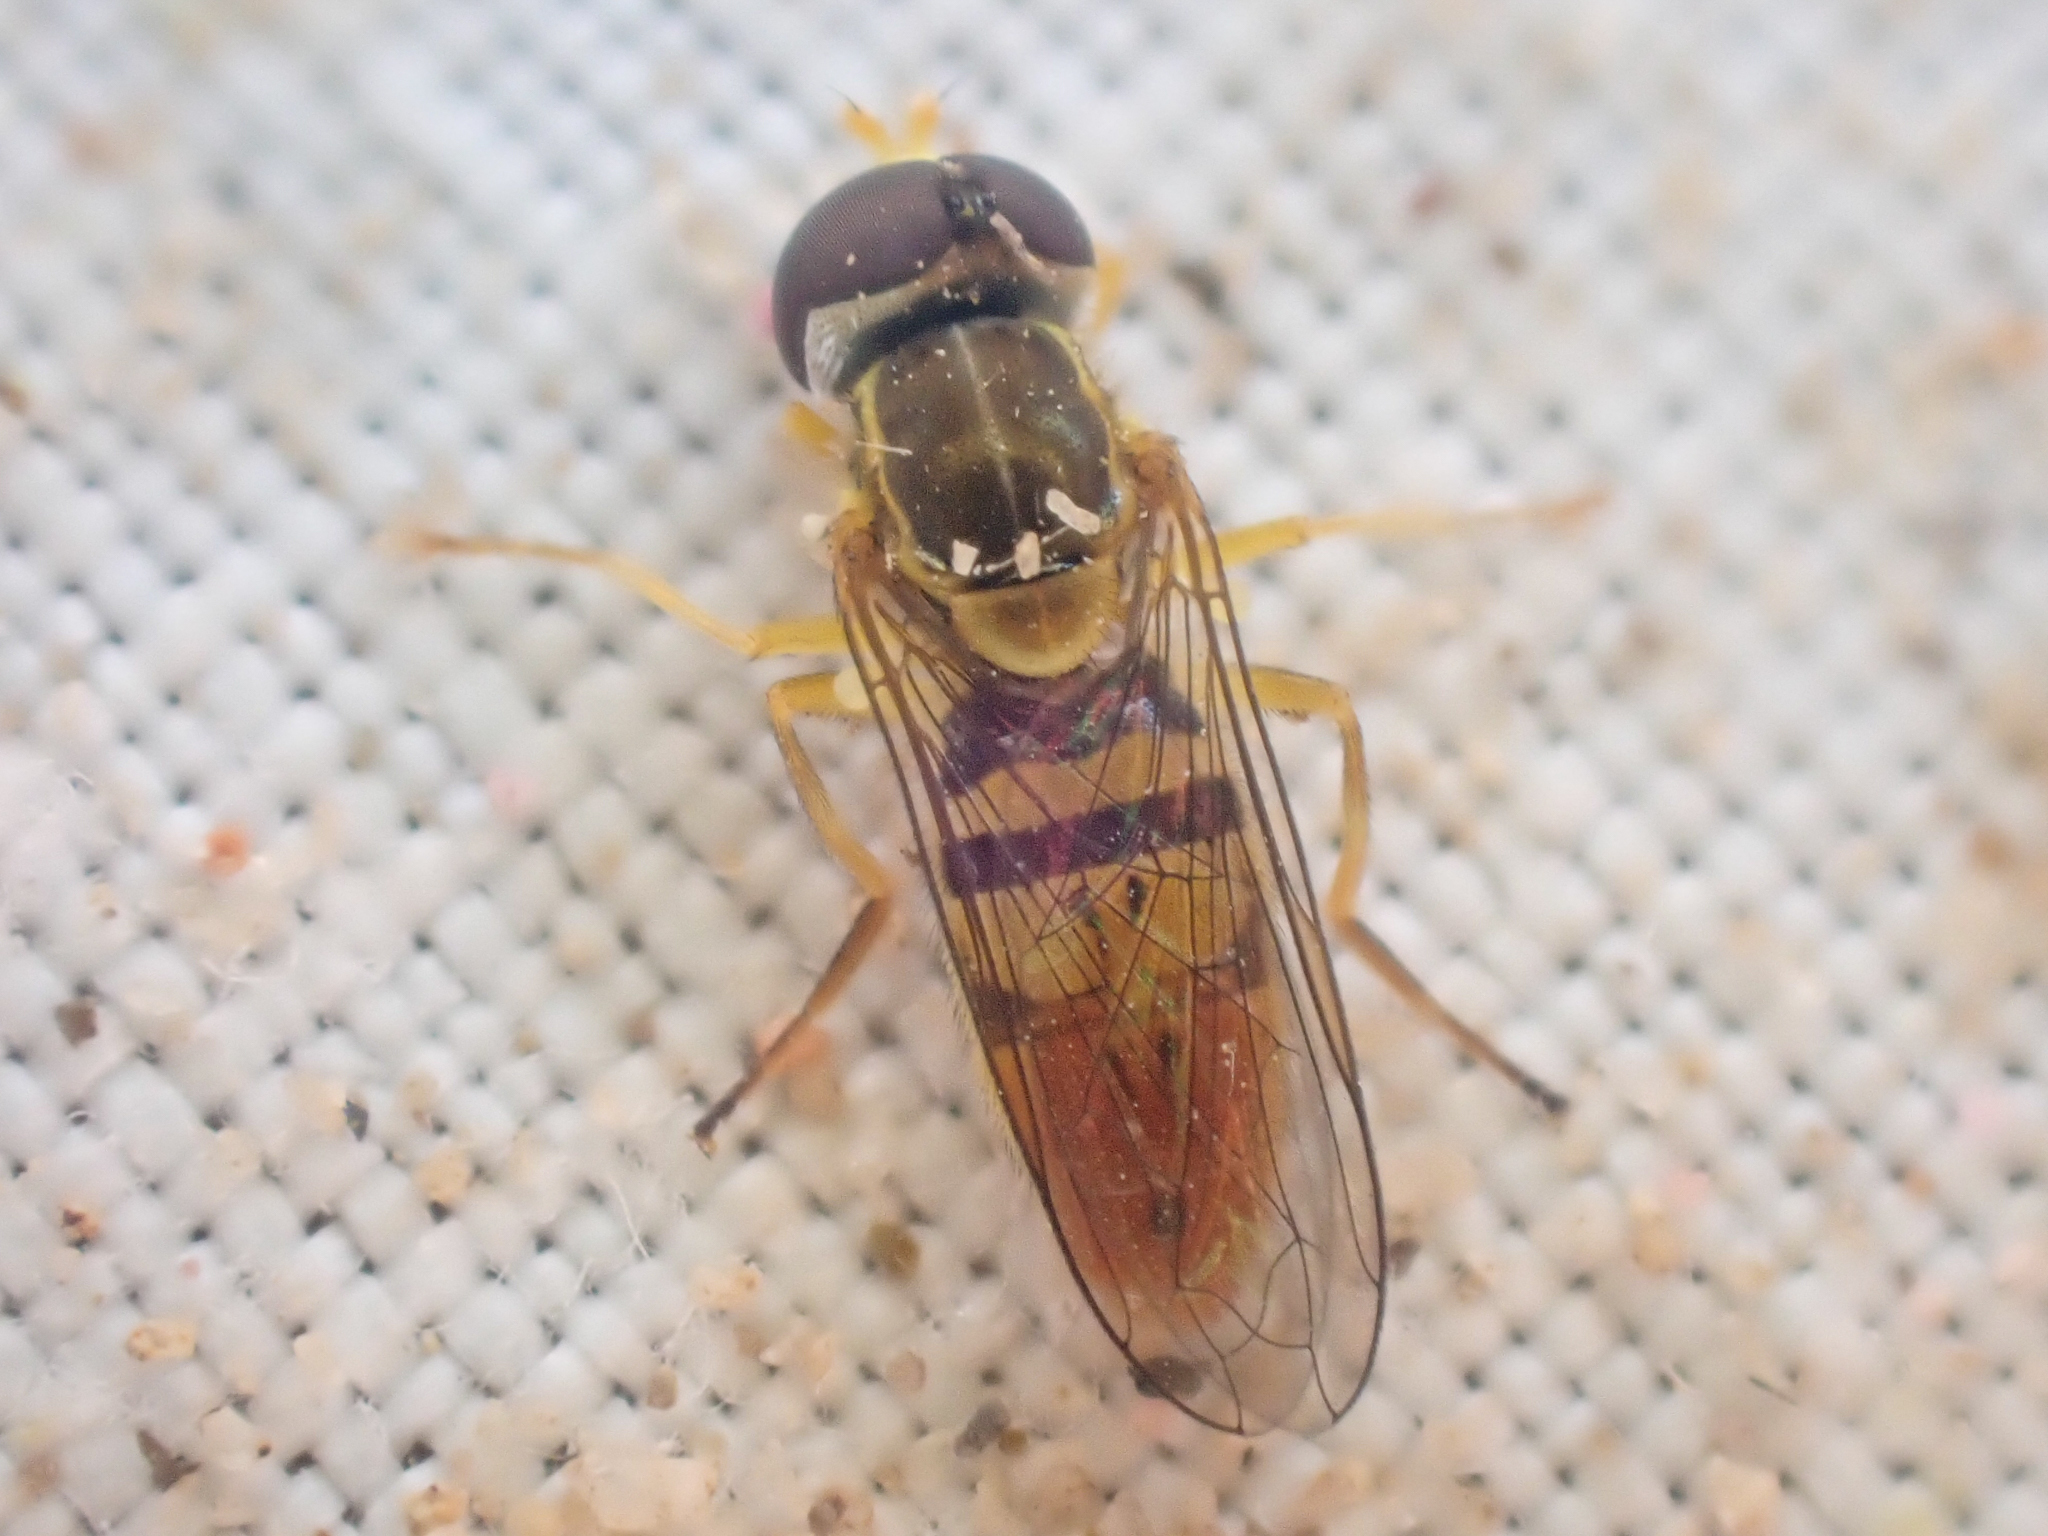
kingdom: Animalia
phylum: Arthropoda
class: Insecta
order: Diptera
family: Syrphidae
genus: Toxomerus
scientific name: Toxomerus marginatus
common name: Syrphid fly
